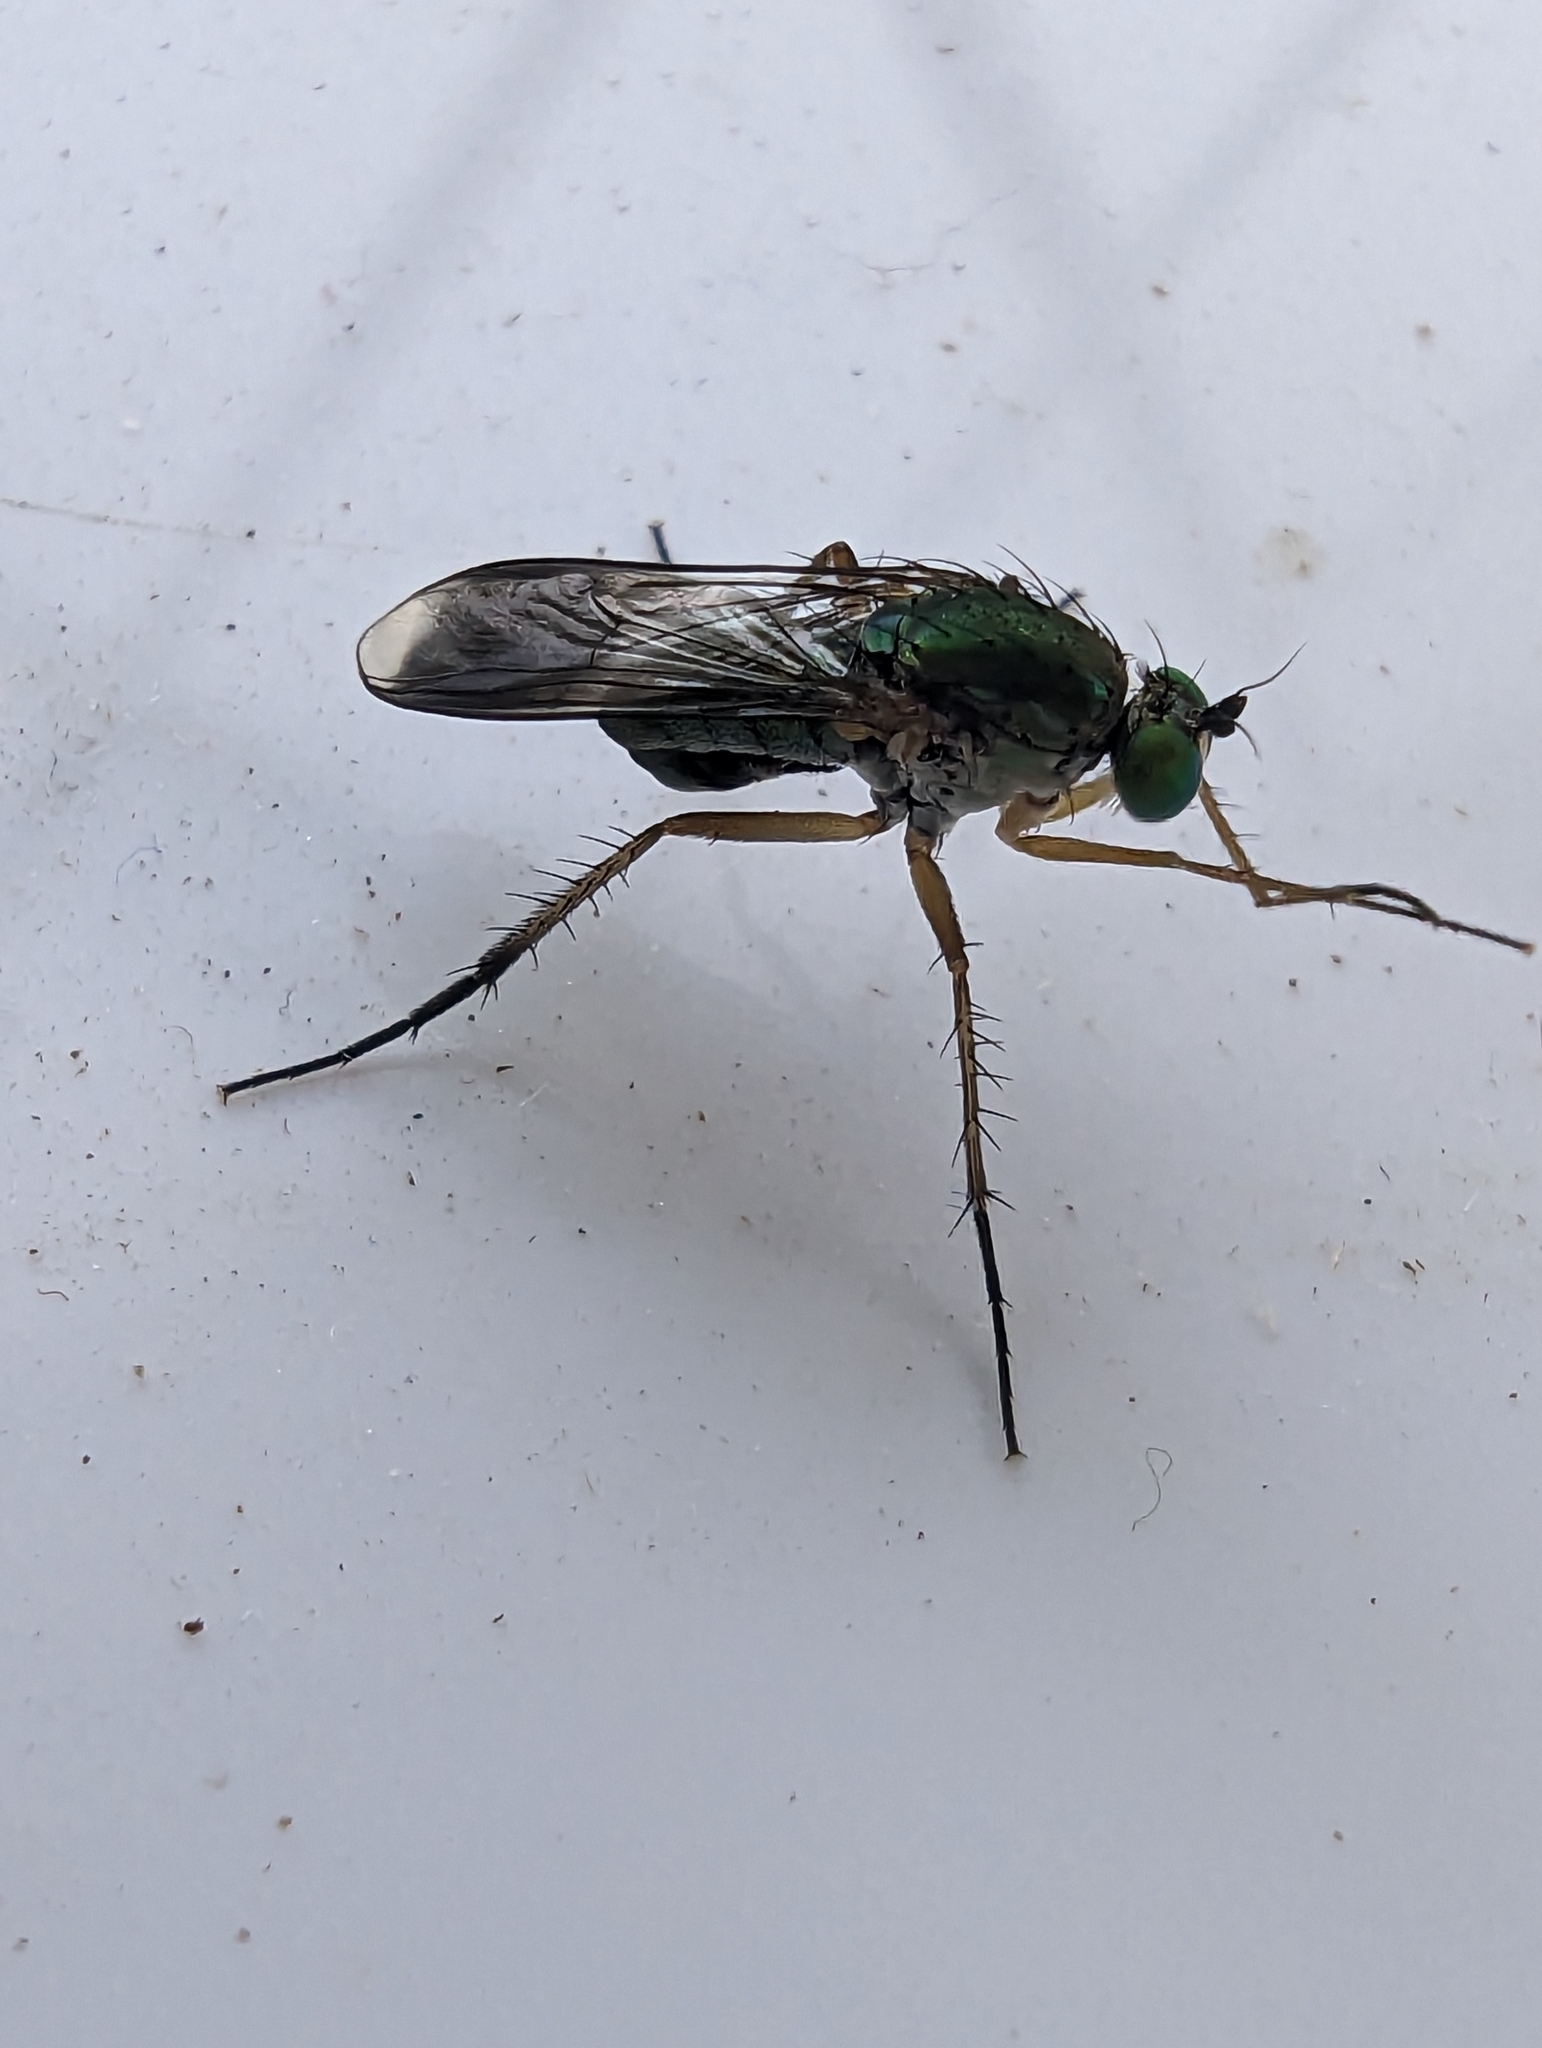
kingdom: Animalia
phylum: Arthropoda
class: Insecta
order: Diptera
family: Dolichopodidae
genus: Poecilobothrus
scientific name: Poecilobothrus nobilitatus
